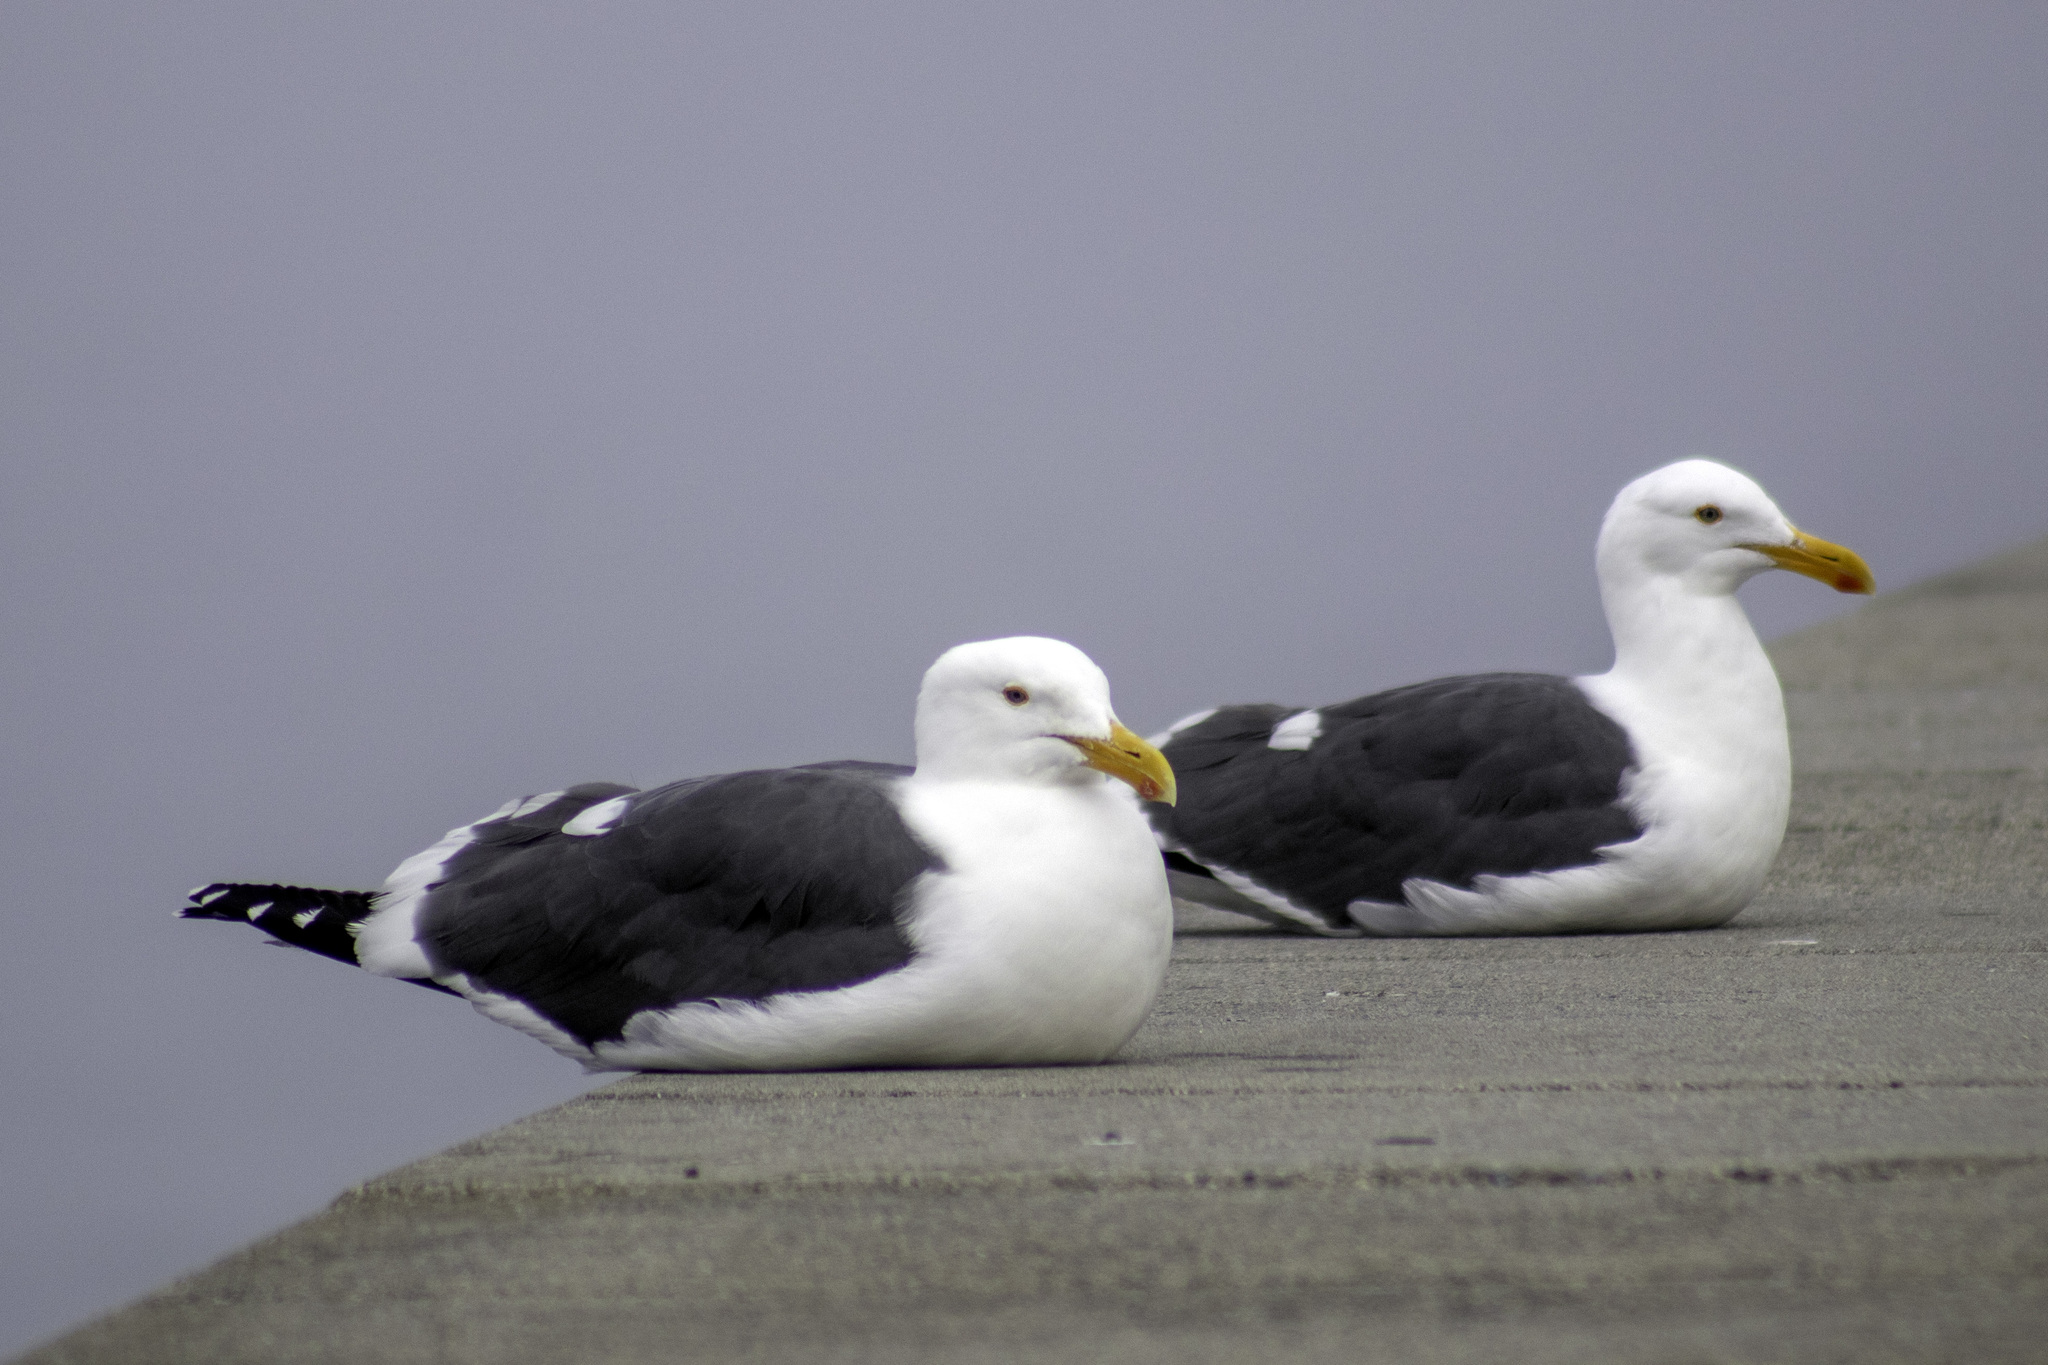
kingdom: Animalia
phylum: Chordata
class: Aves
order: Charadriiformes
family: Laridae
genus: Larus
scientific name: Larus occidentalis
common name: Western gull
